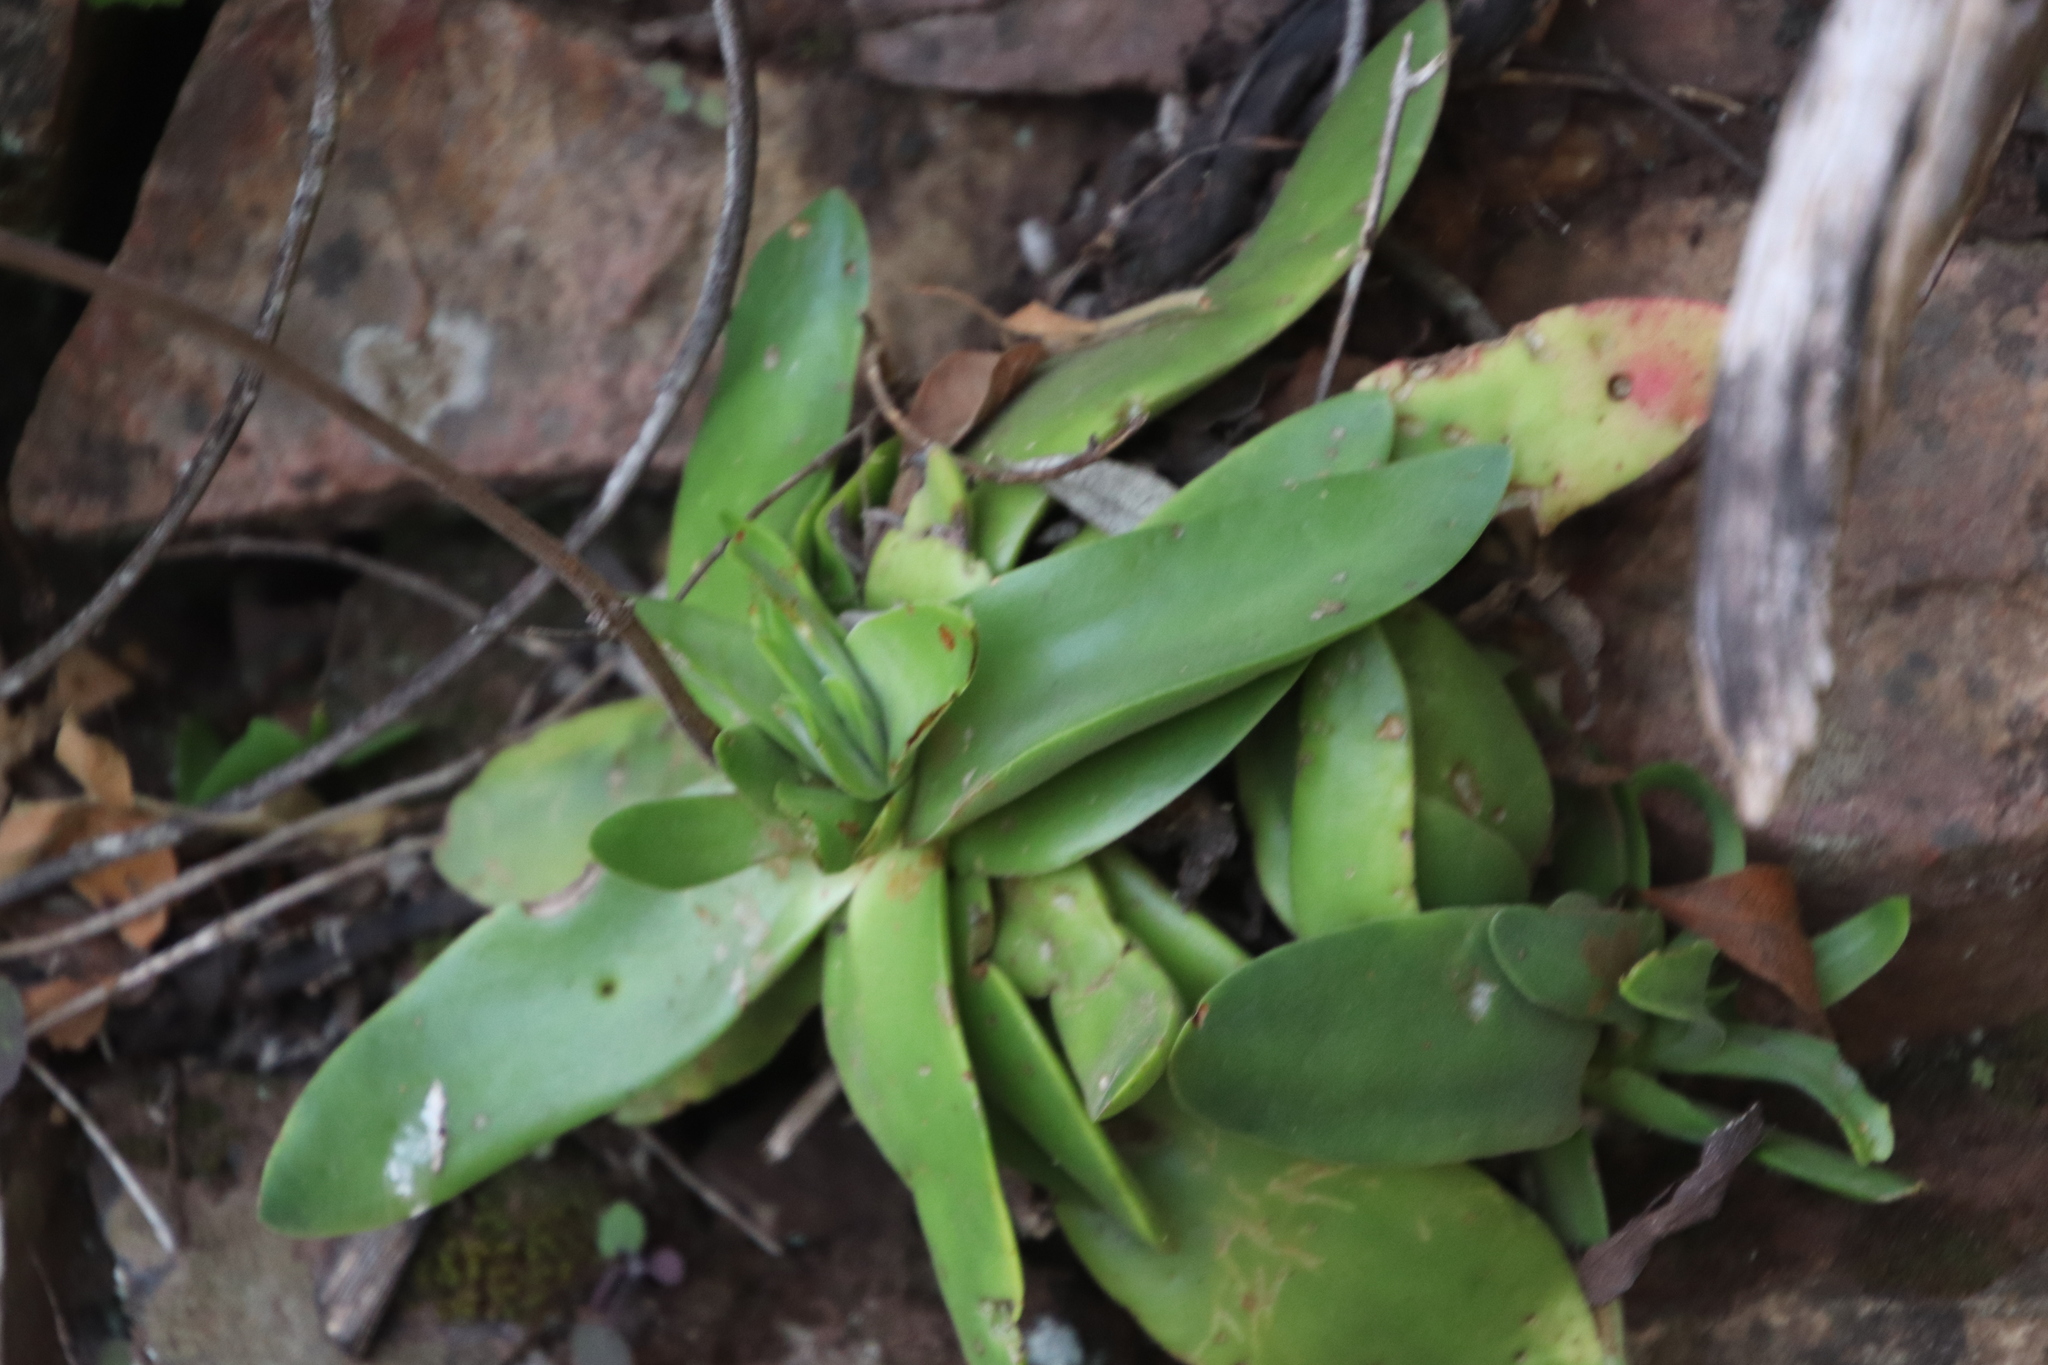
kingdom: Plantae
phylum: Tracheophyta
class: Magnoliopsida
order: Saxifragales
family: Crassulaceae
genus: Crassula
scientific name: Crassula nudicaulis
